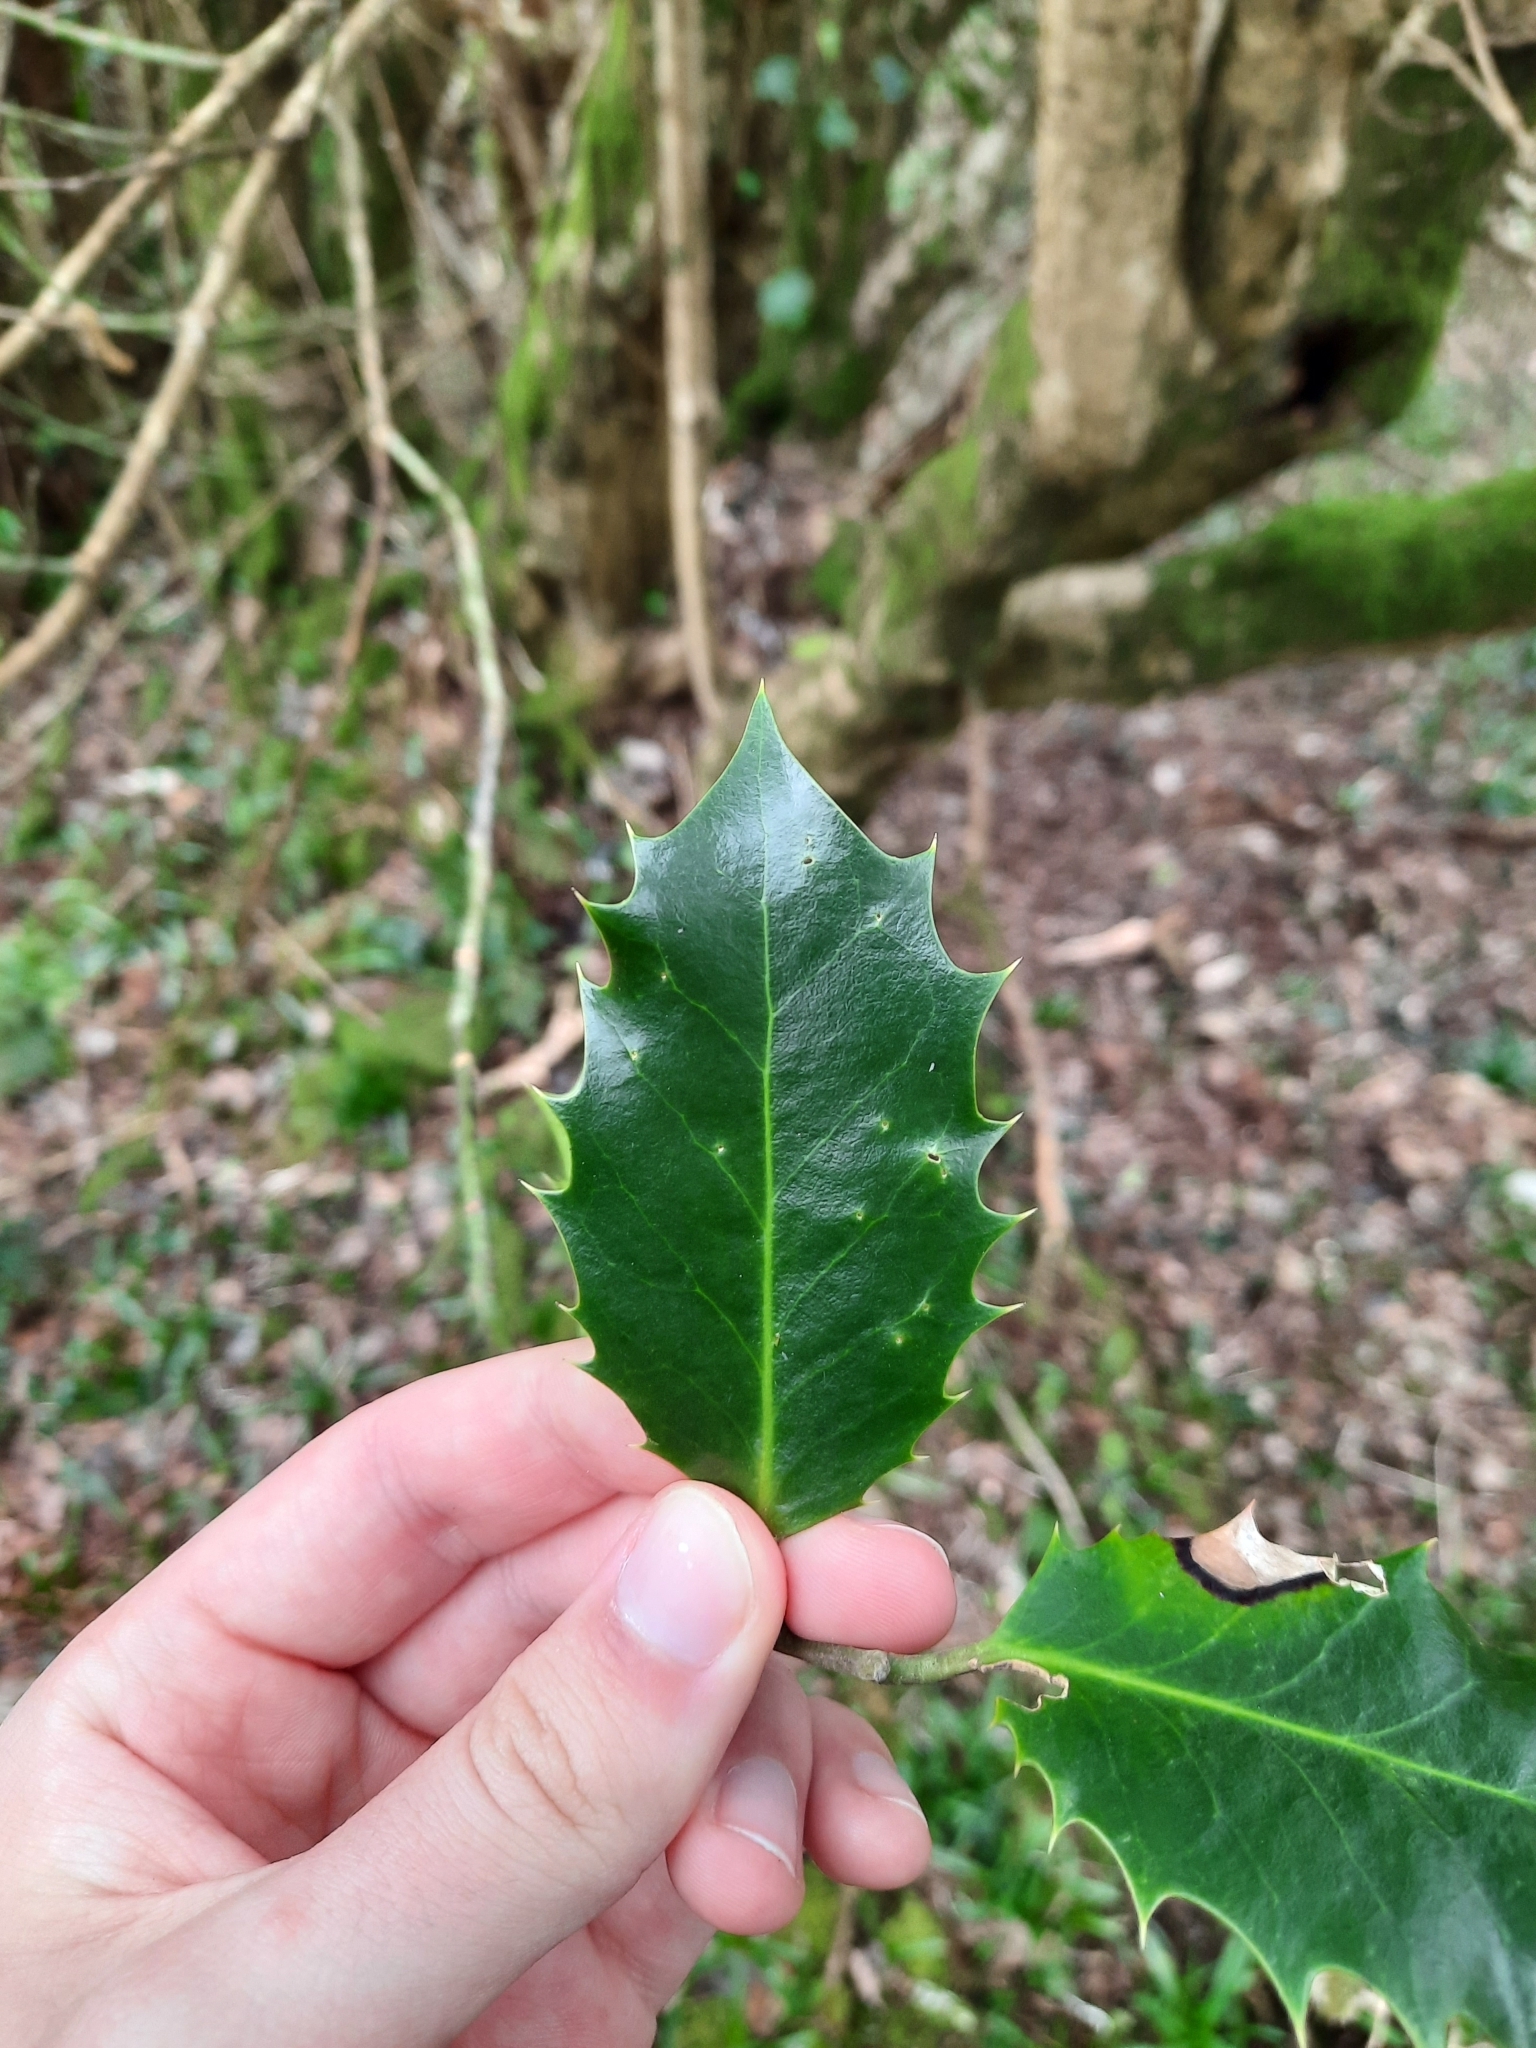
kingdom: Plantae
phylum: Tracheophyta
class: Magnoliopsida
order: Aquifoliales
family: Aquifoliaceae
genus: Ilex
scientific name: Ilex aquifolium
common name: English holly
